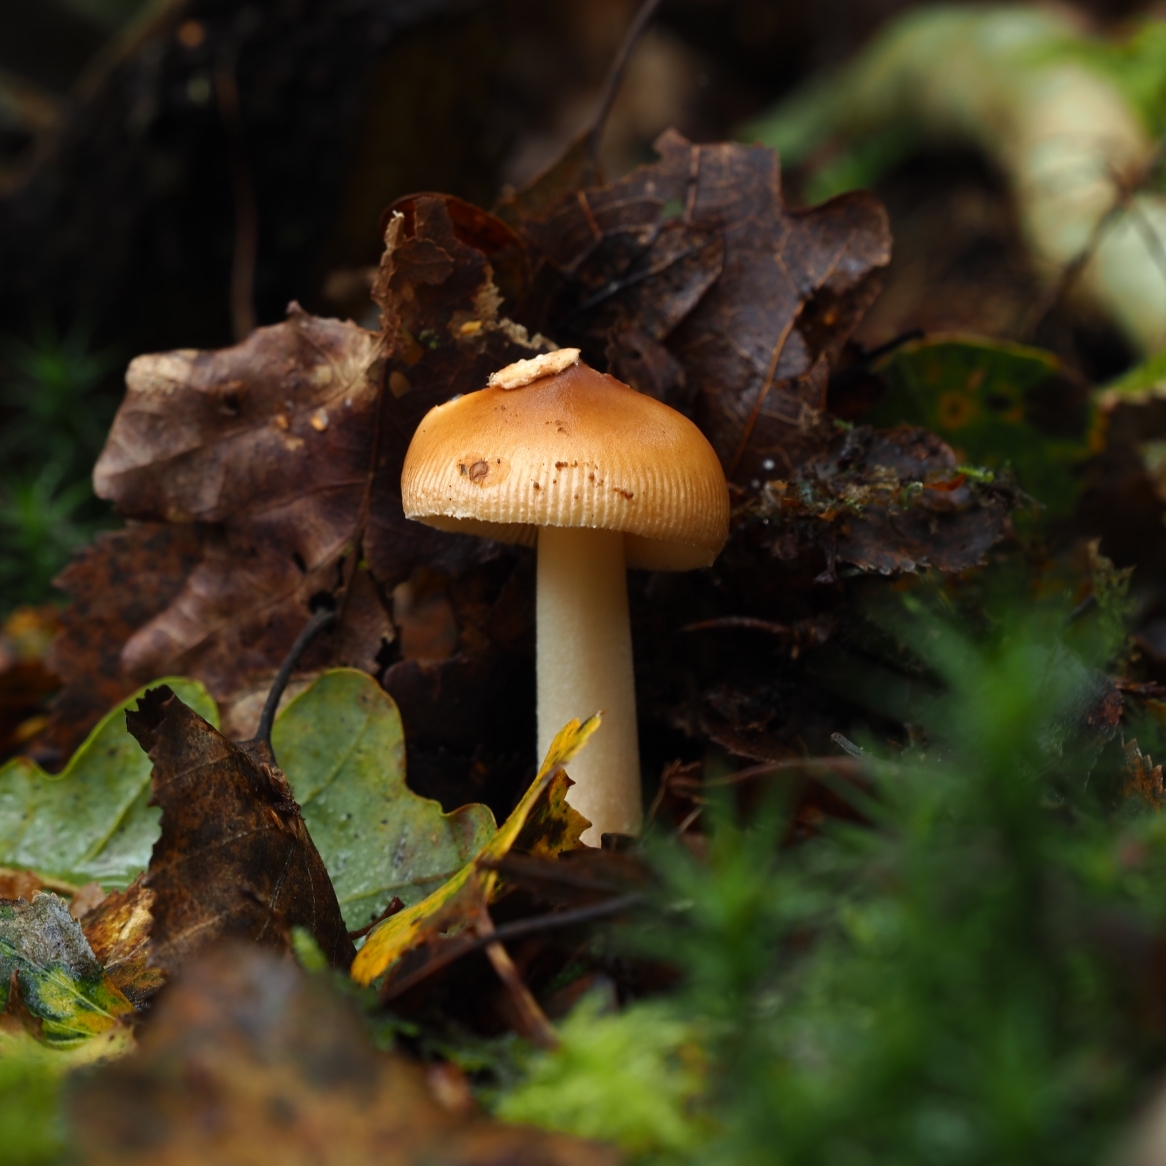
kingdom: Fungi
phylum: Basidiomycota
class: Agaricomycetes
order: Agaricales
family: Amanitaceae
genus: Amanita
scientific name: Amanita fulva
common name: Tawny grisette
